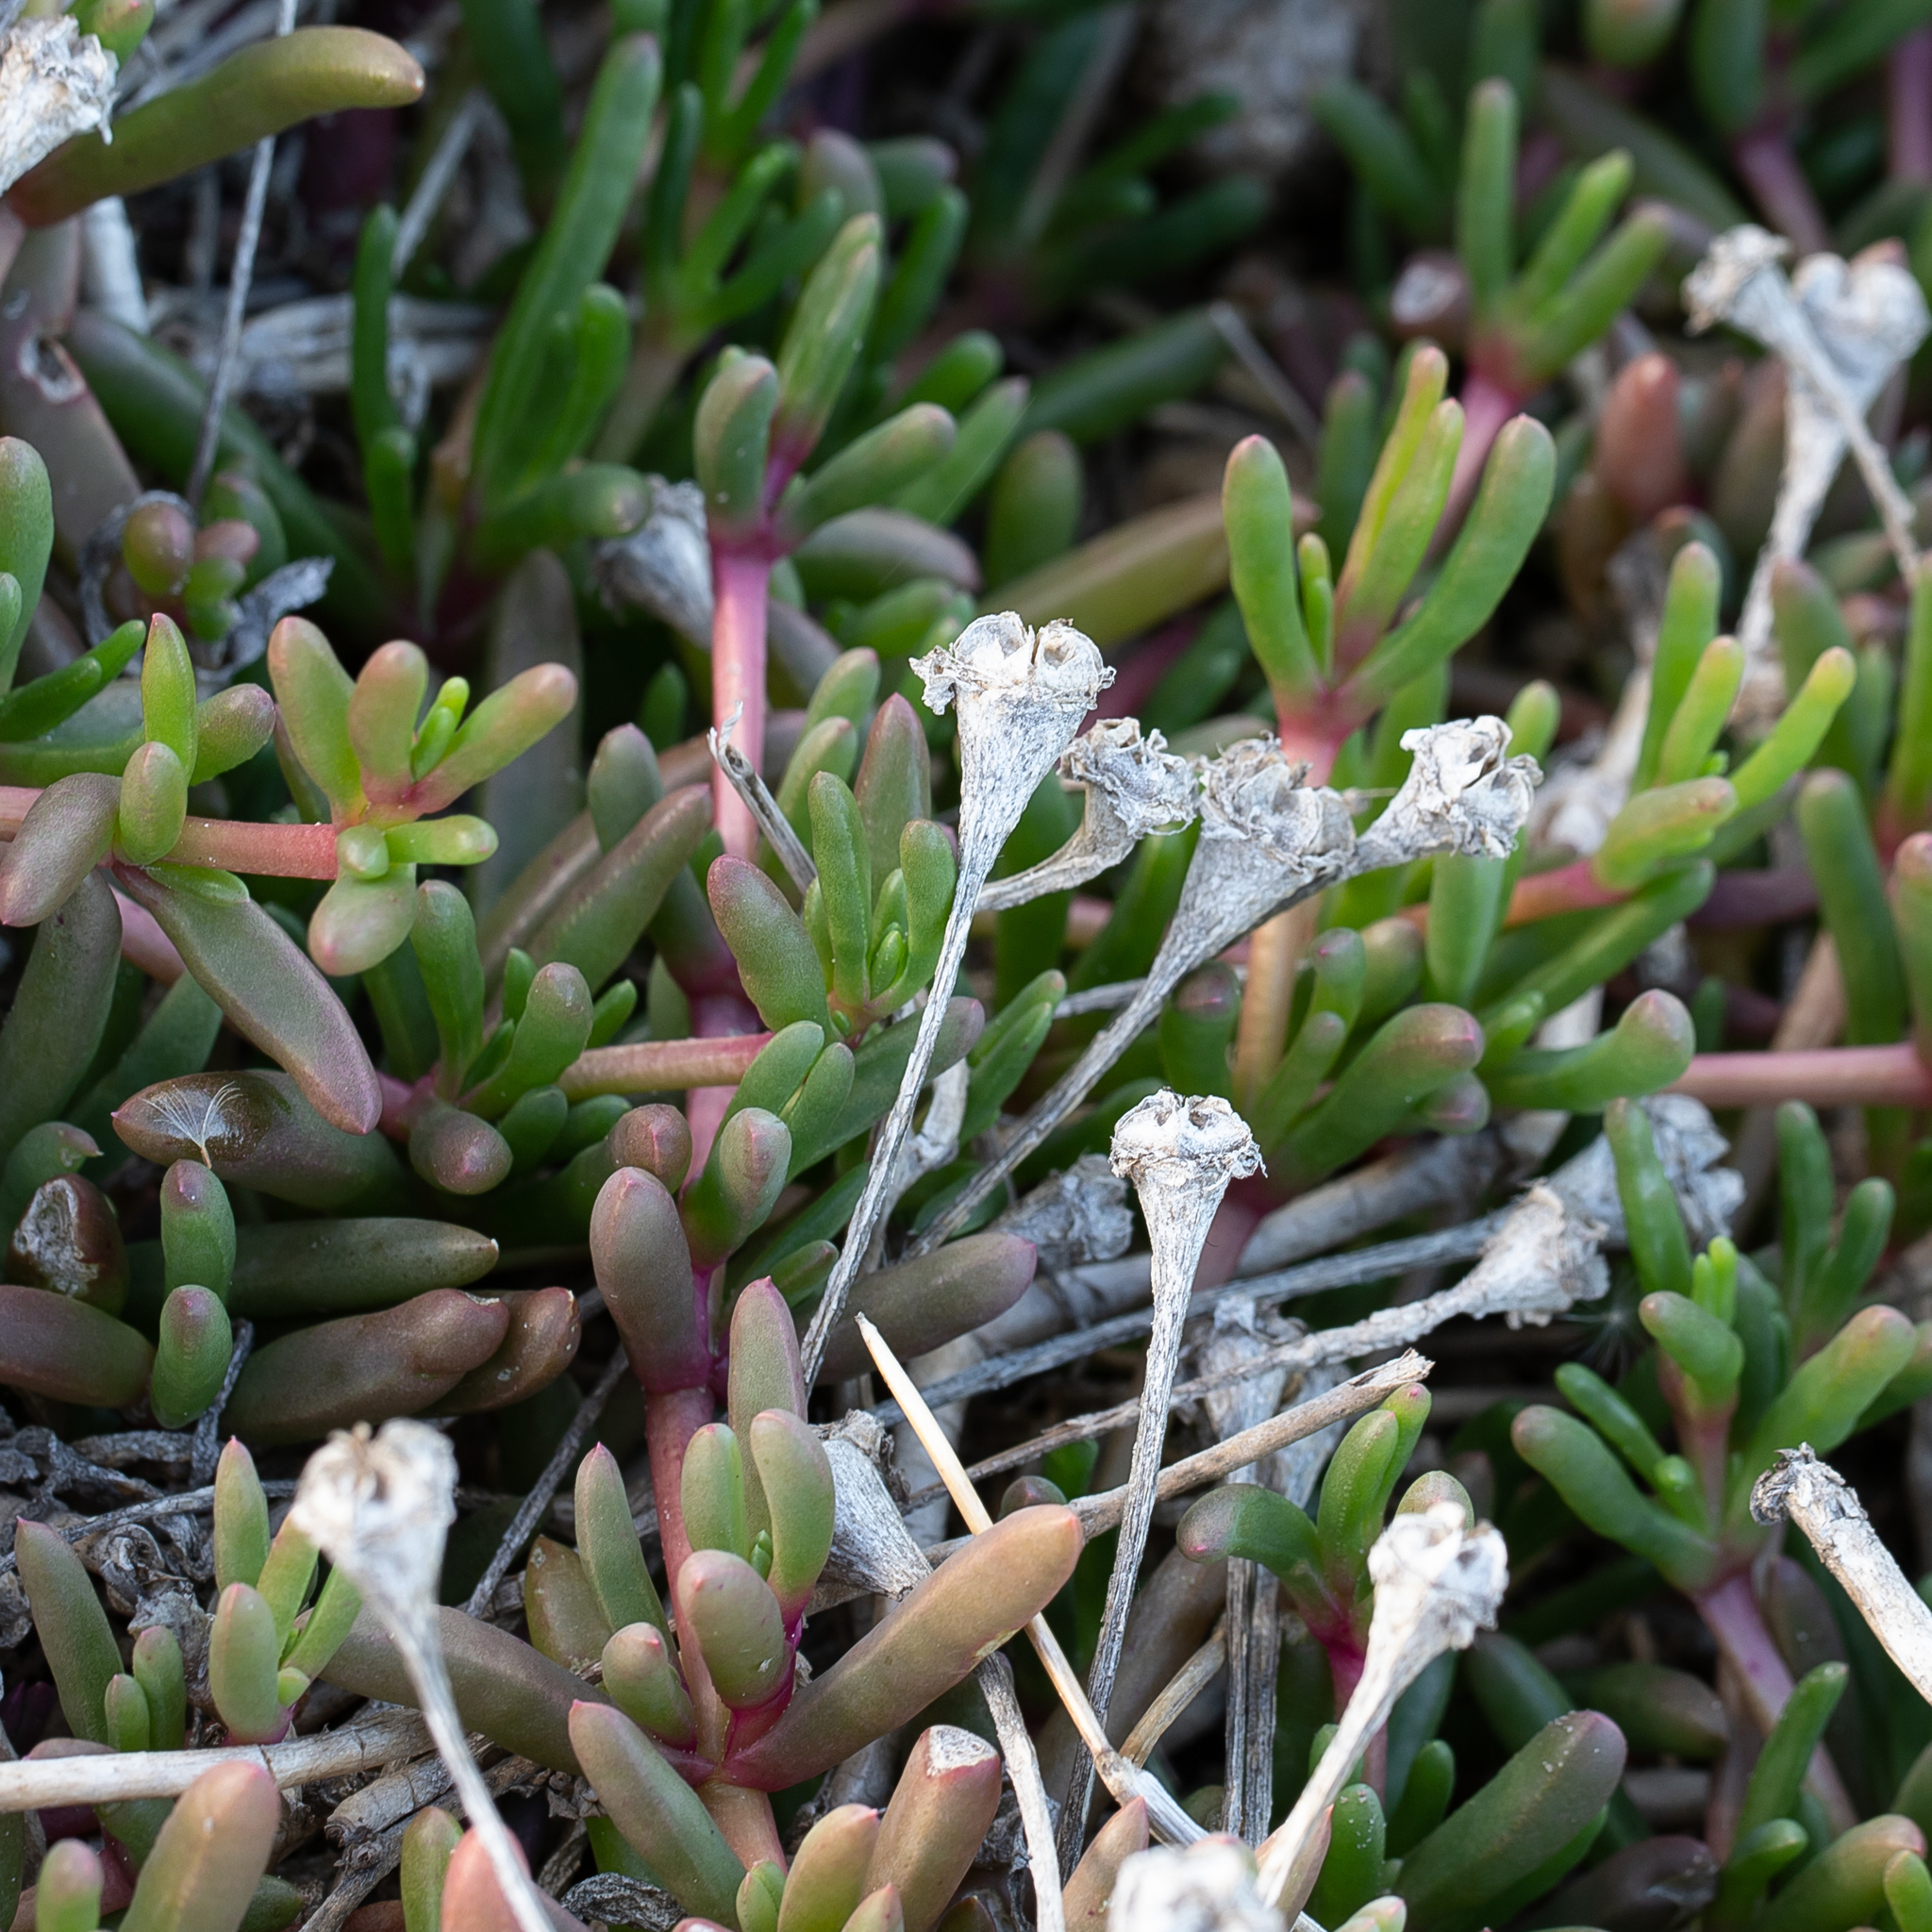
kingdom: Plantae
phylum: Tracheophyta
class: Magnoliopsida
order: Caryophyllales
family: Aizoaceae
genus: Disphyma
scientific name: Disphyma clavellatum
